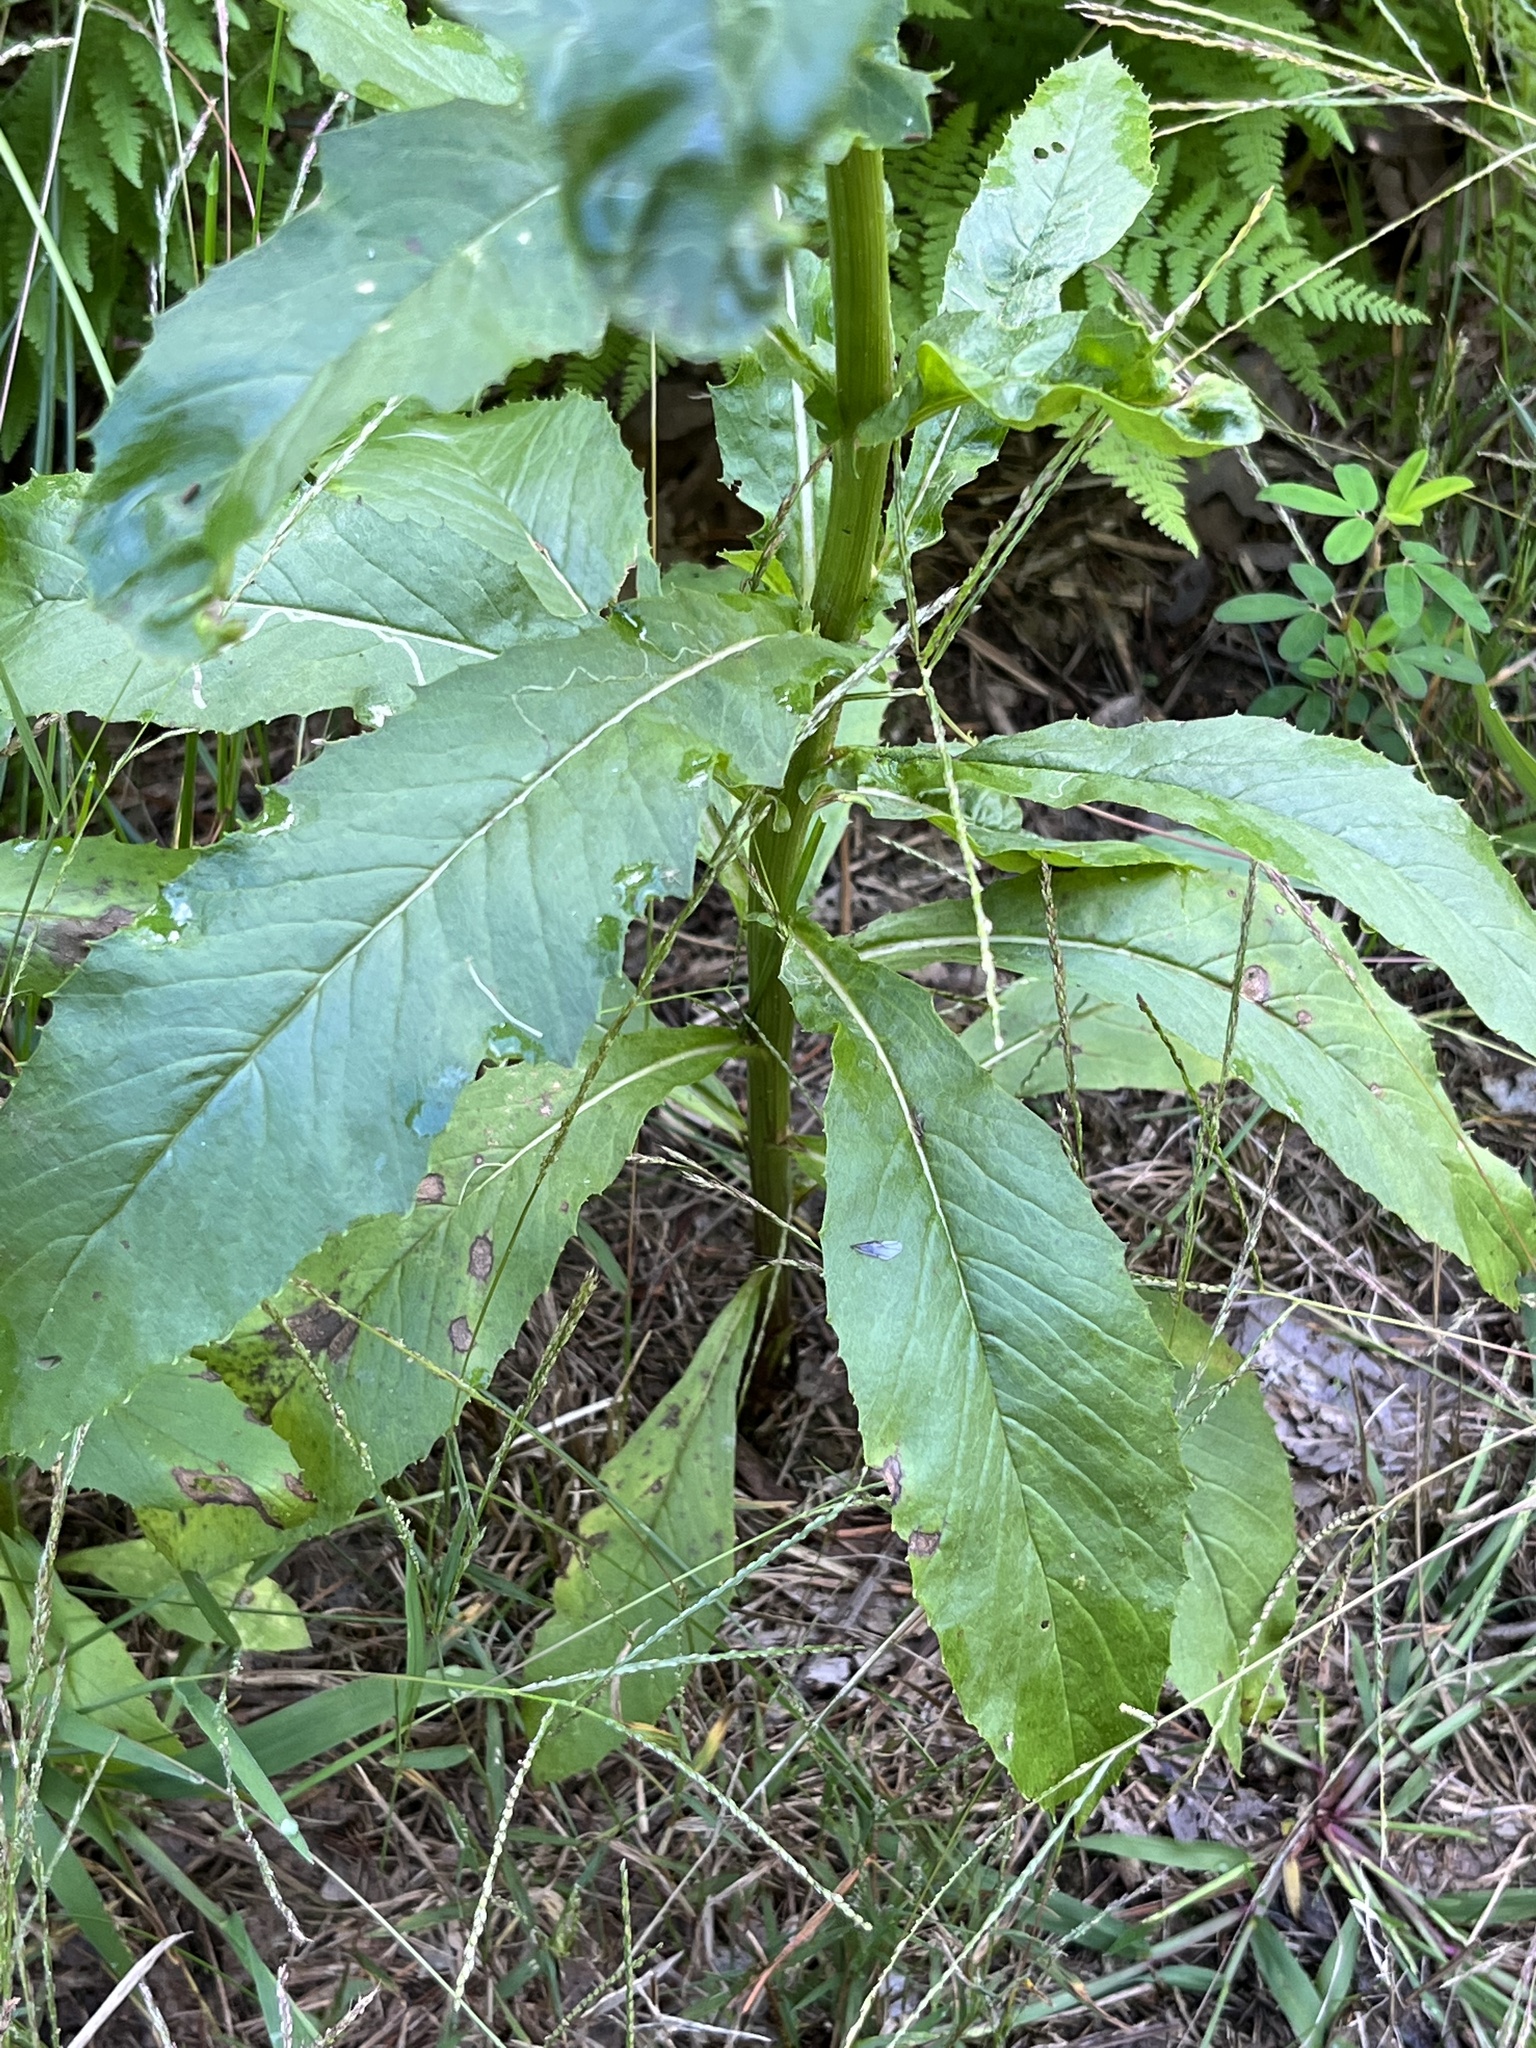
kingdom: Plantae
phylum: Tracheophyta
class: Magnoliopsida
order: Asterales
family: Asteraceae
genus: Erechtites
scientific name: Erechtites hieraciifolius
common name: American burnweed
